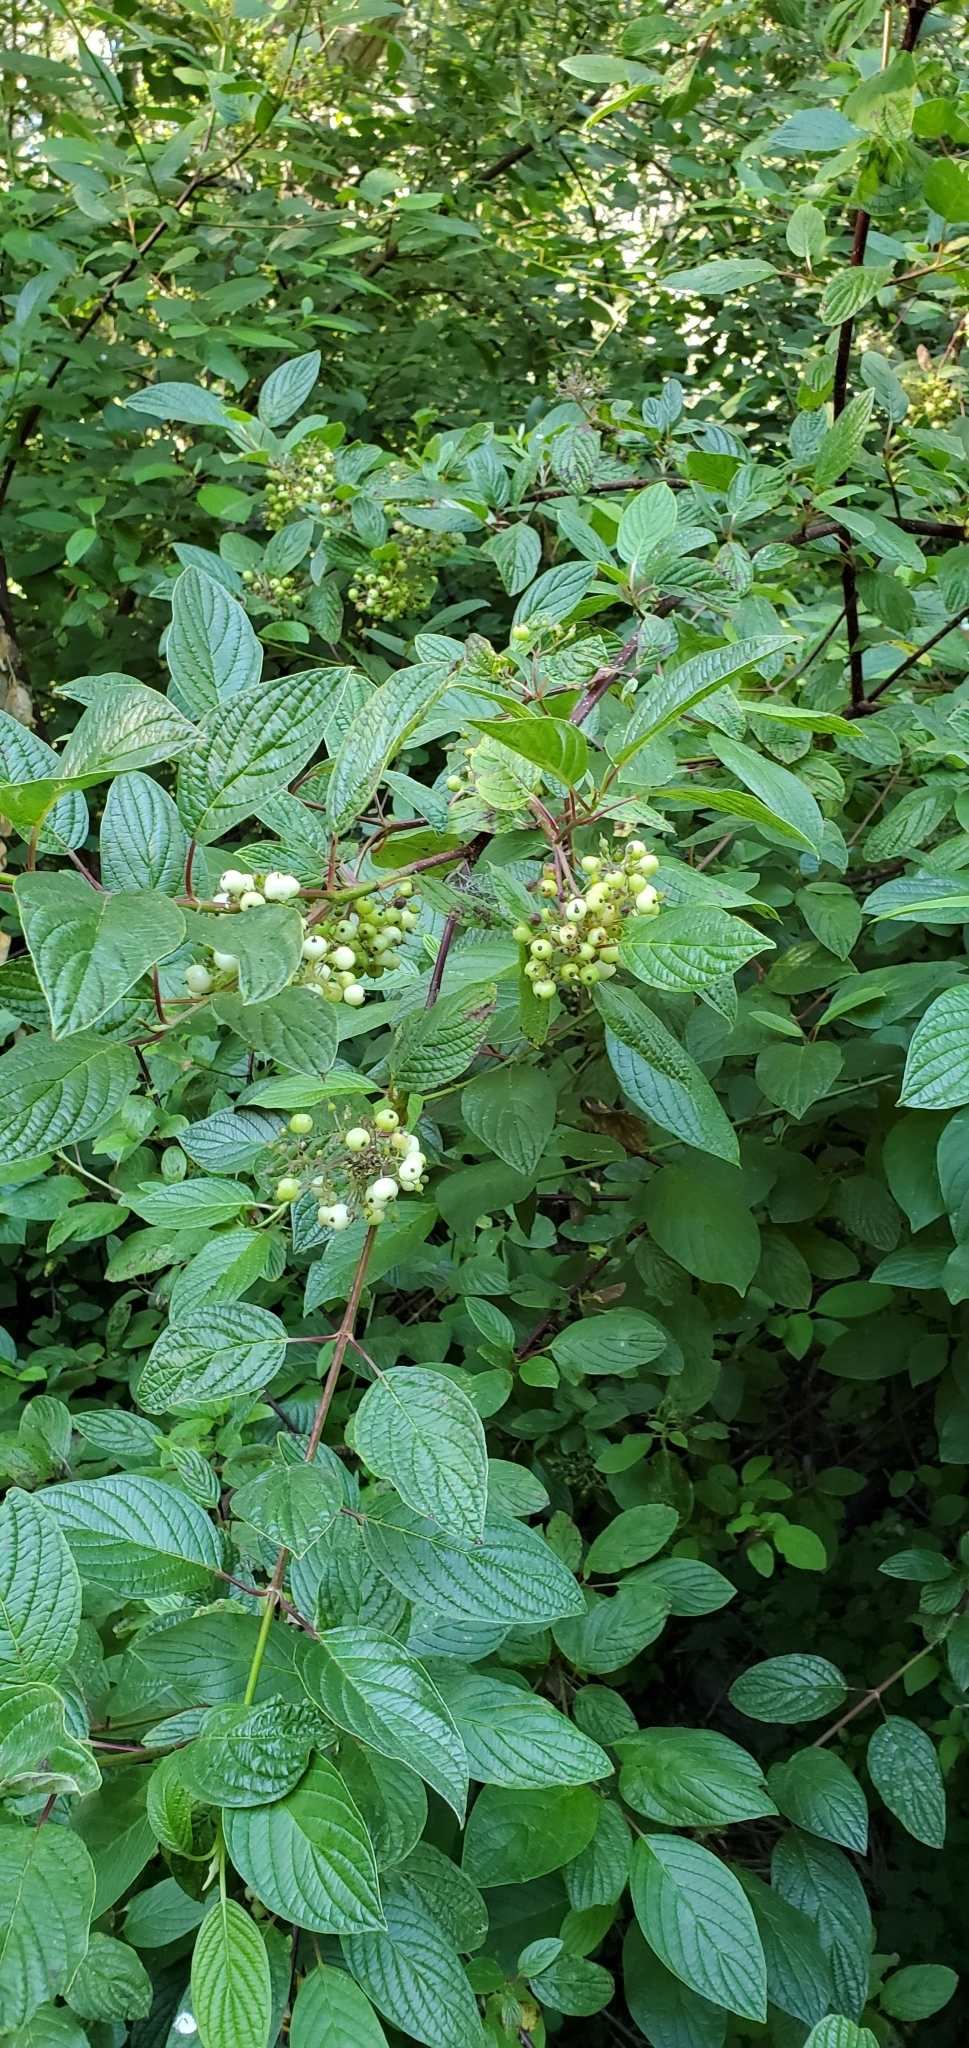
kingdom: Plantae
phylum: Tracheophyta
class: Magnoliopsida
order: Cornales
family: Cornaceae
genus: Cornus
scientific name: Cornus sericea
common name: Red-osier dogwood
